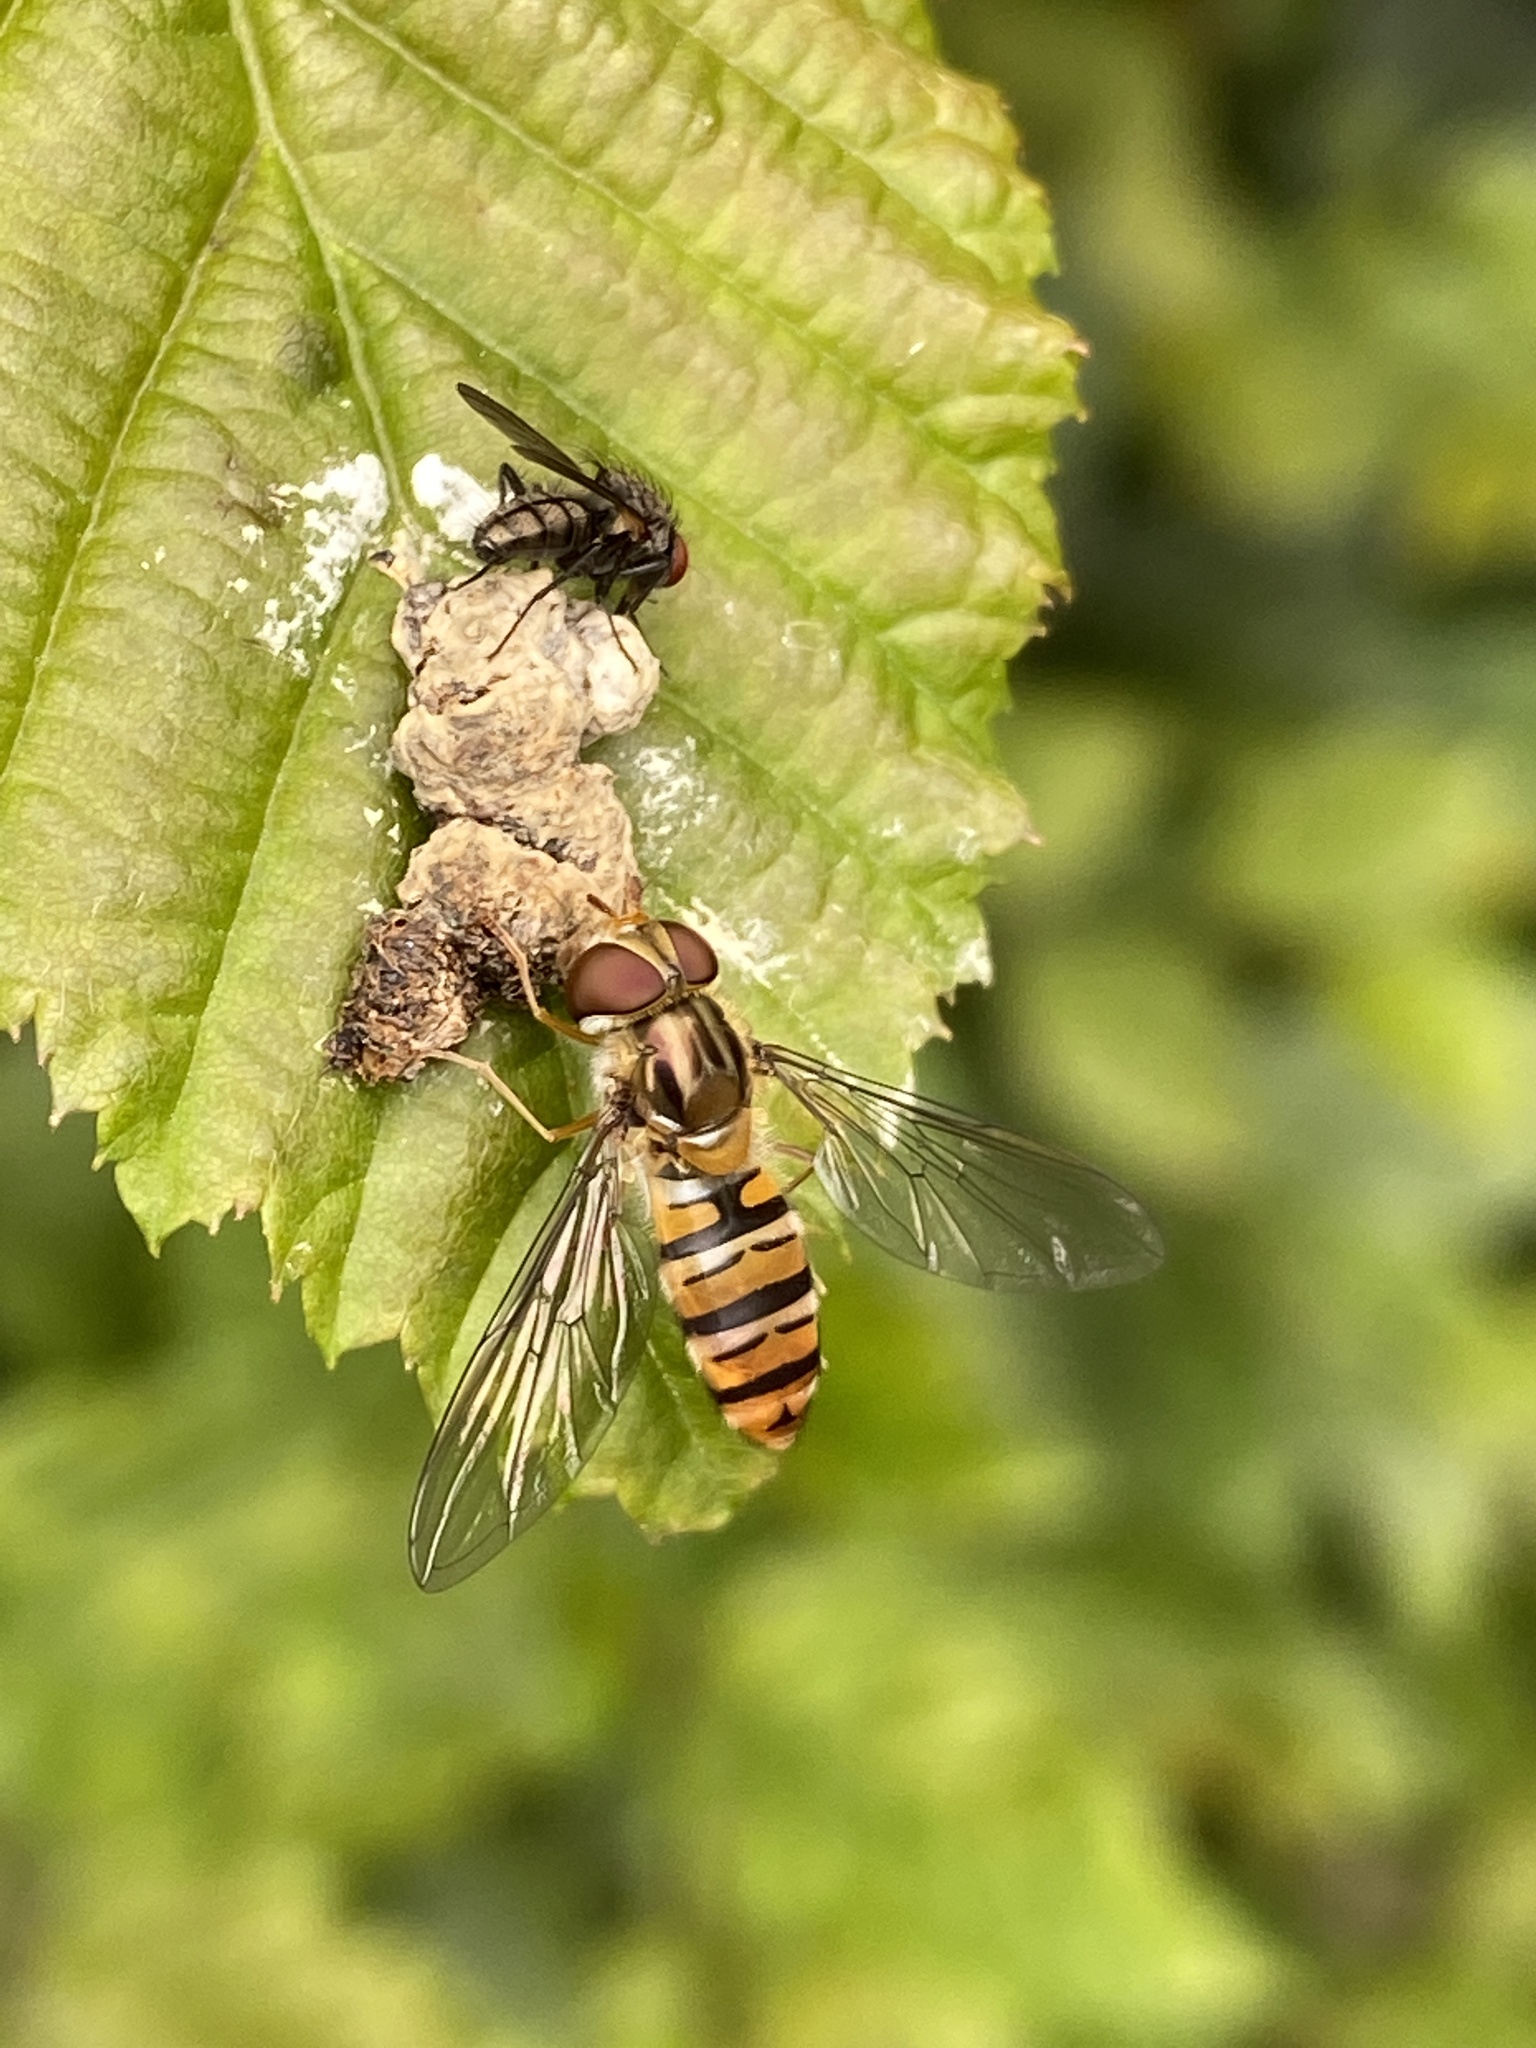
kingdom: Animalia
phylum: Arthropoda
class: Insecta
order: Diptera
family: Syrphidae
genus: Episyrphus
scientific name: Episyrphus balteatus
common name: Marmalade hoverfly
